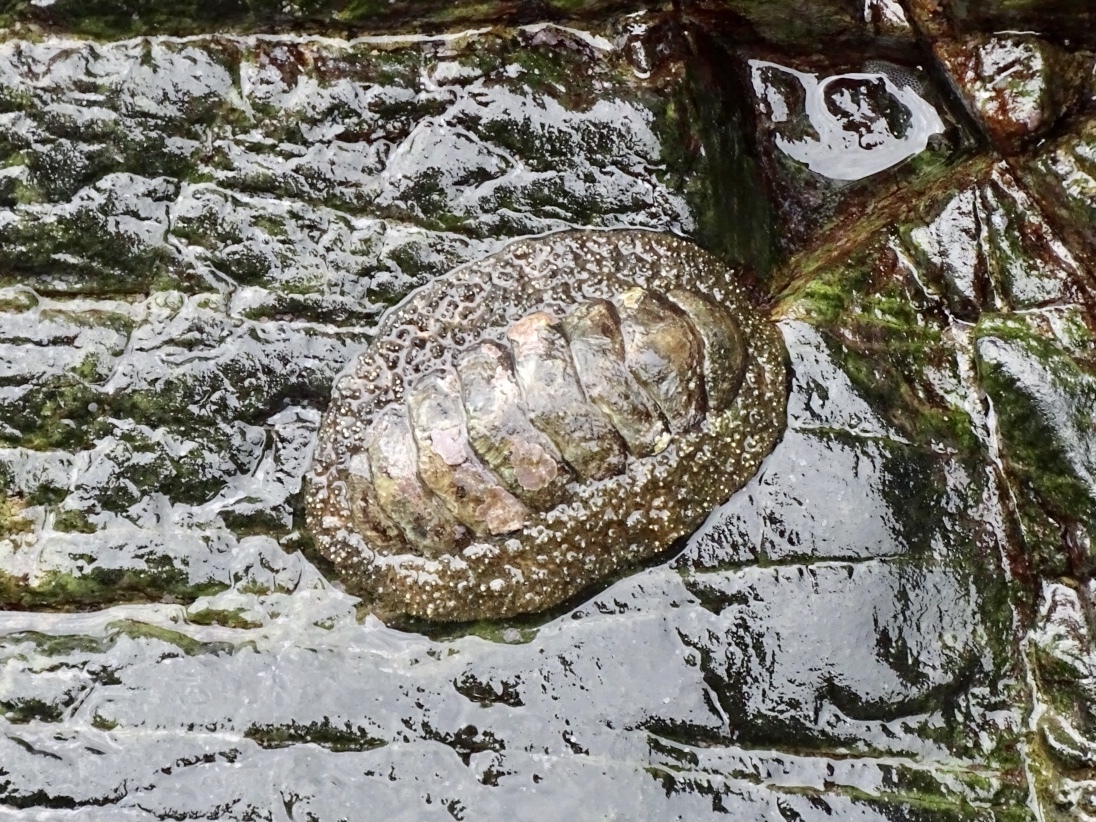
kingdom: Animalia
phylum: Mollusca
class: Polyplacophora
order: Chitonida
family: Chitonidae
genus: Liolophura
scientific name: Liolophura japonica
